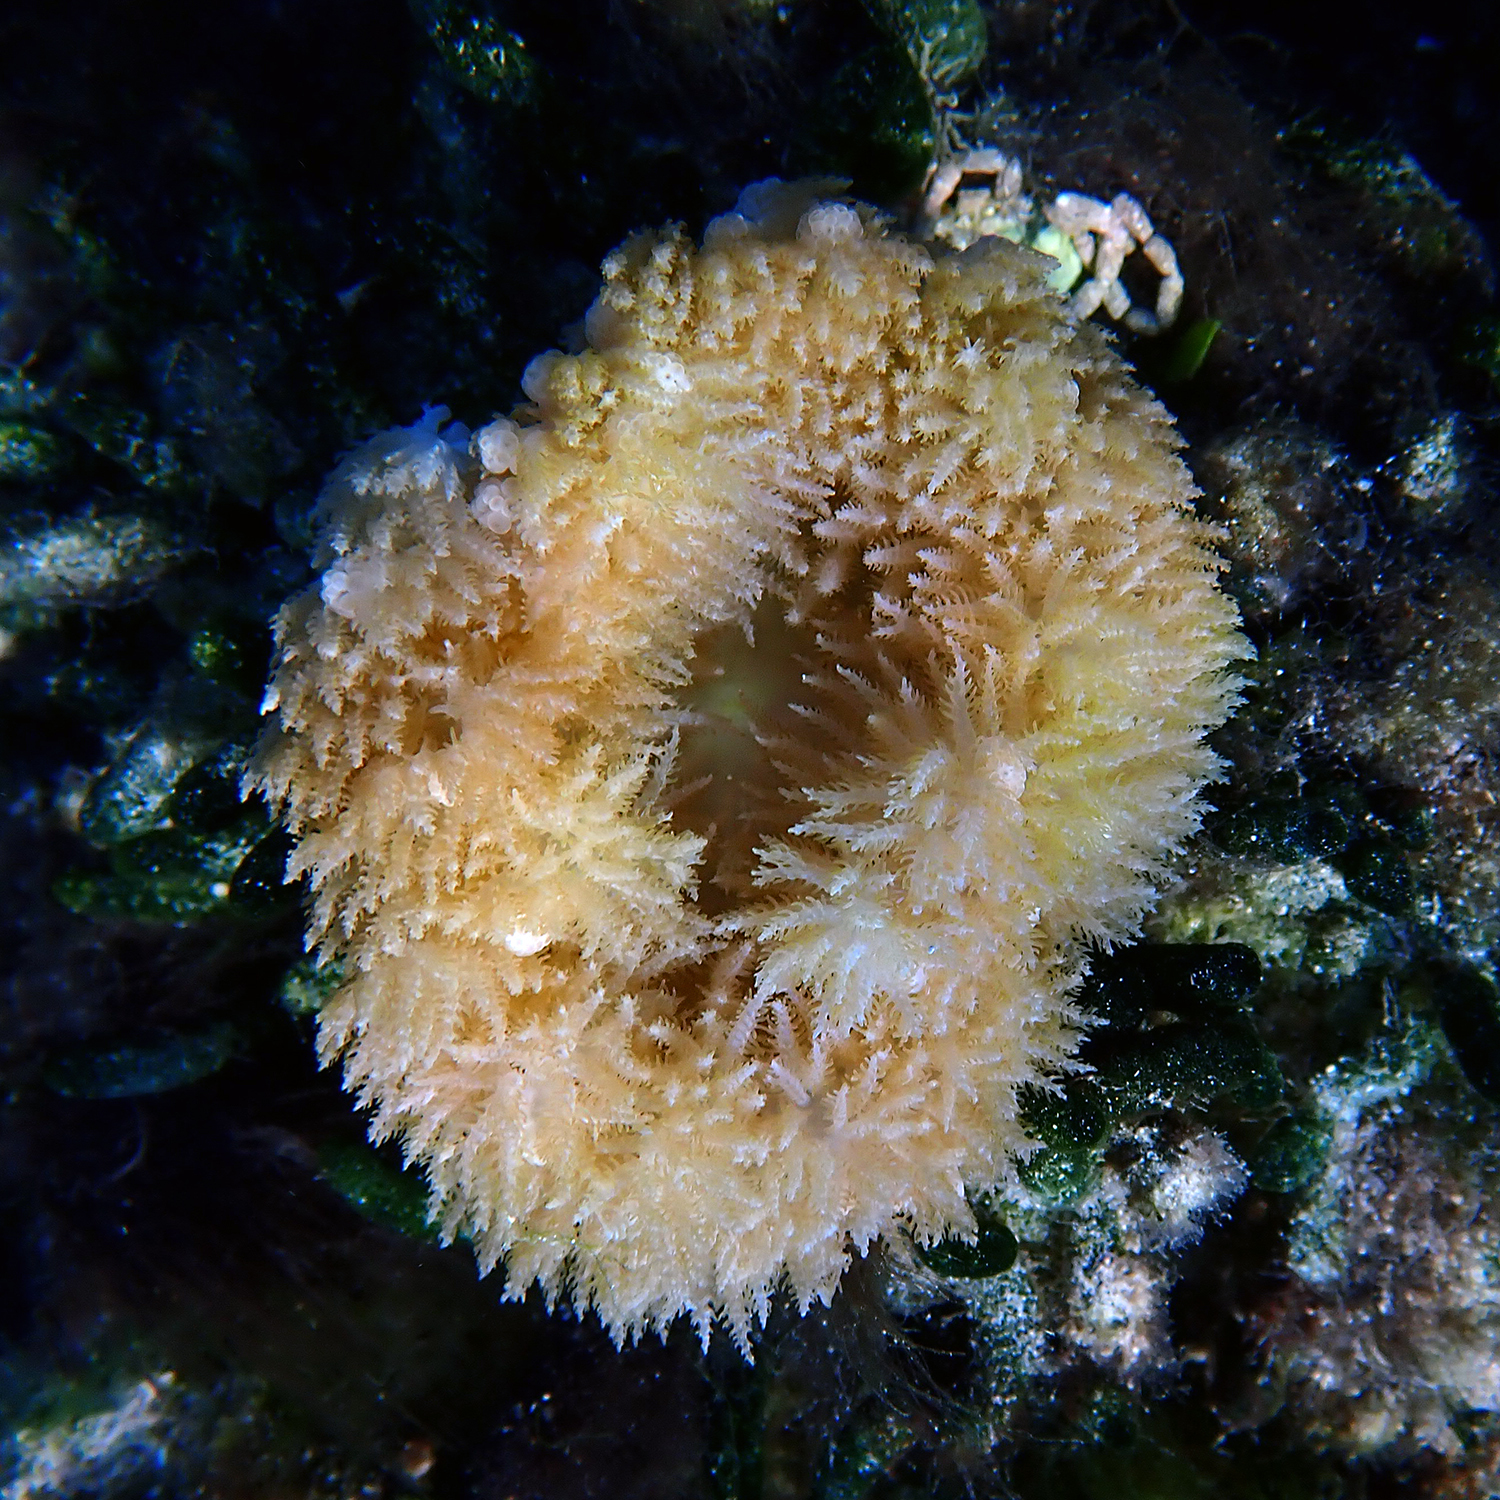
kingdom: Animalia
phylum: Cnidaria
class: Anthozoa
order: Actiniaria
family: Thalassianthidae
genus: Heterodactyla
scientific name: Heterodactyla hemprichii
